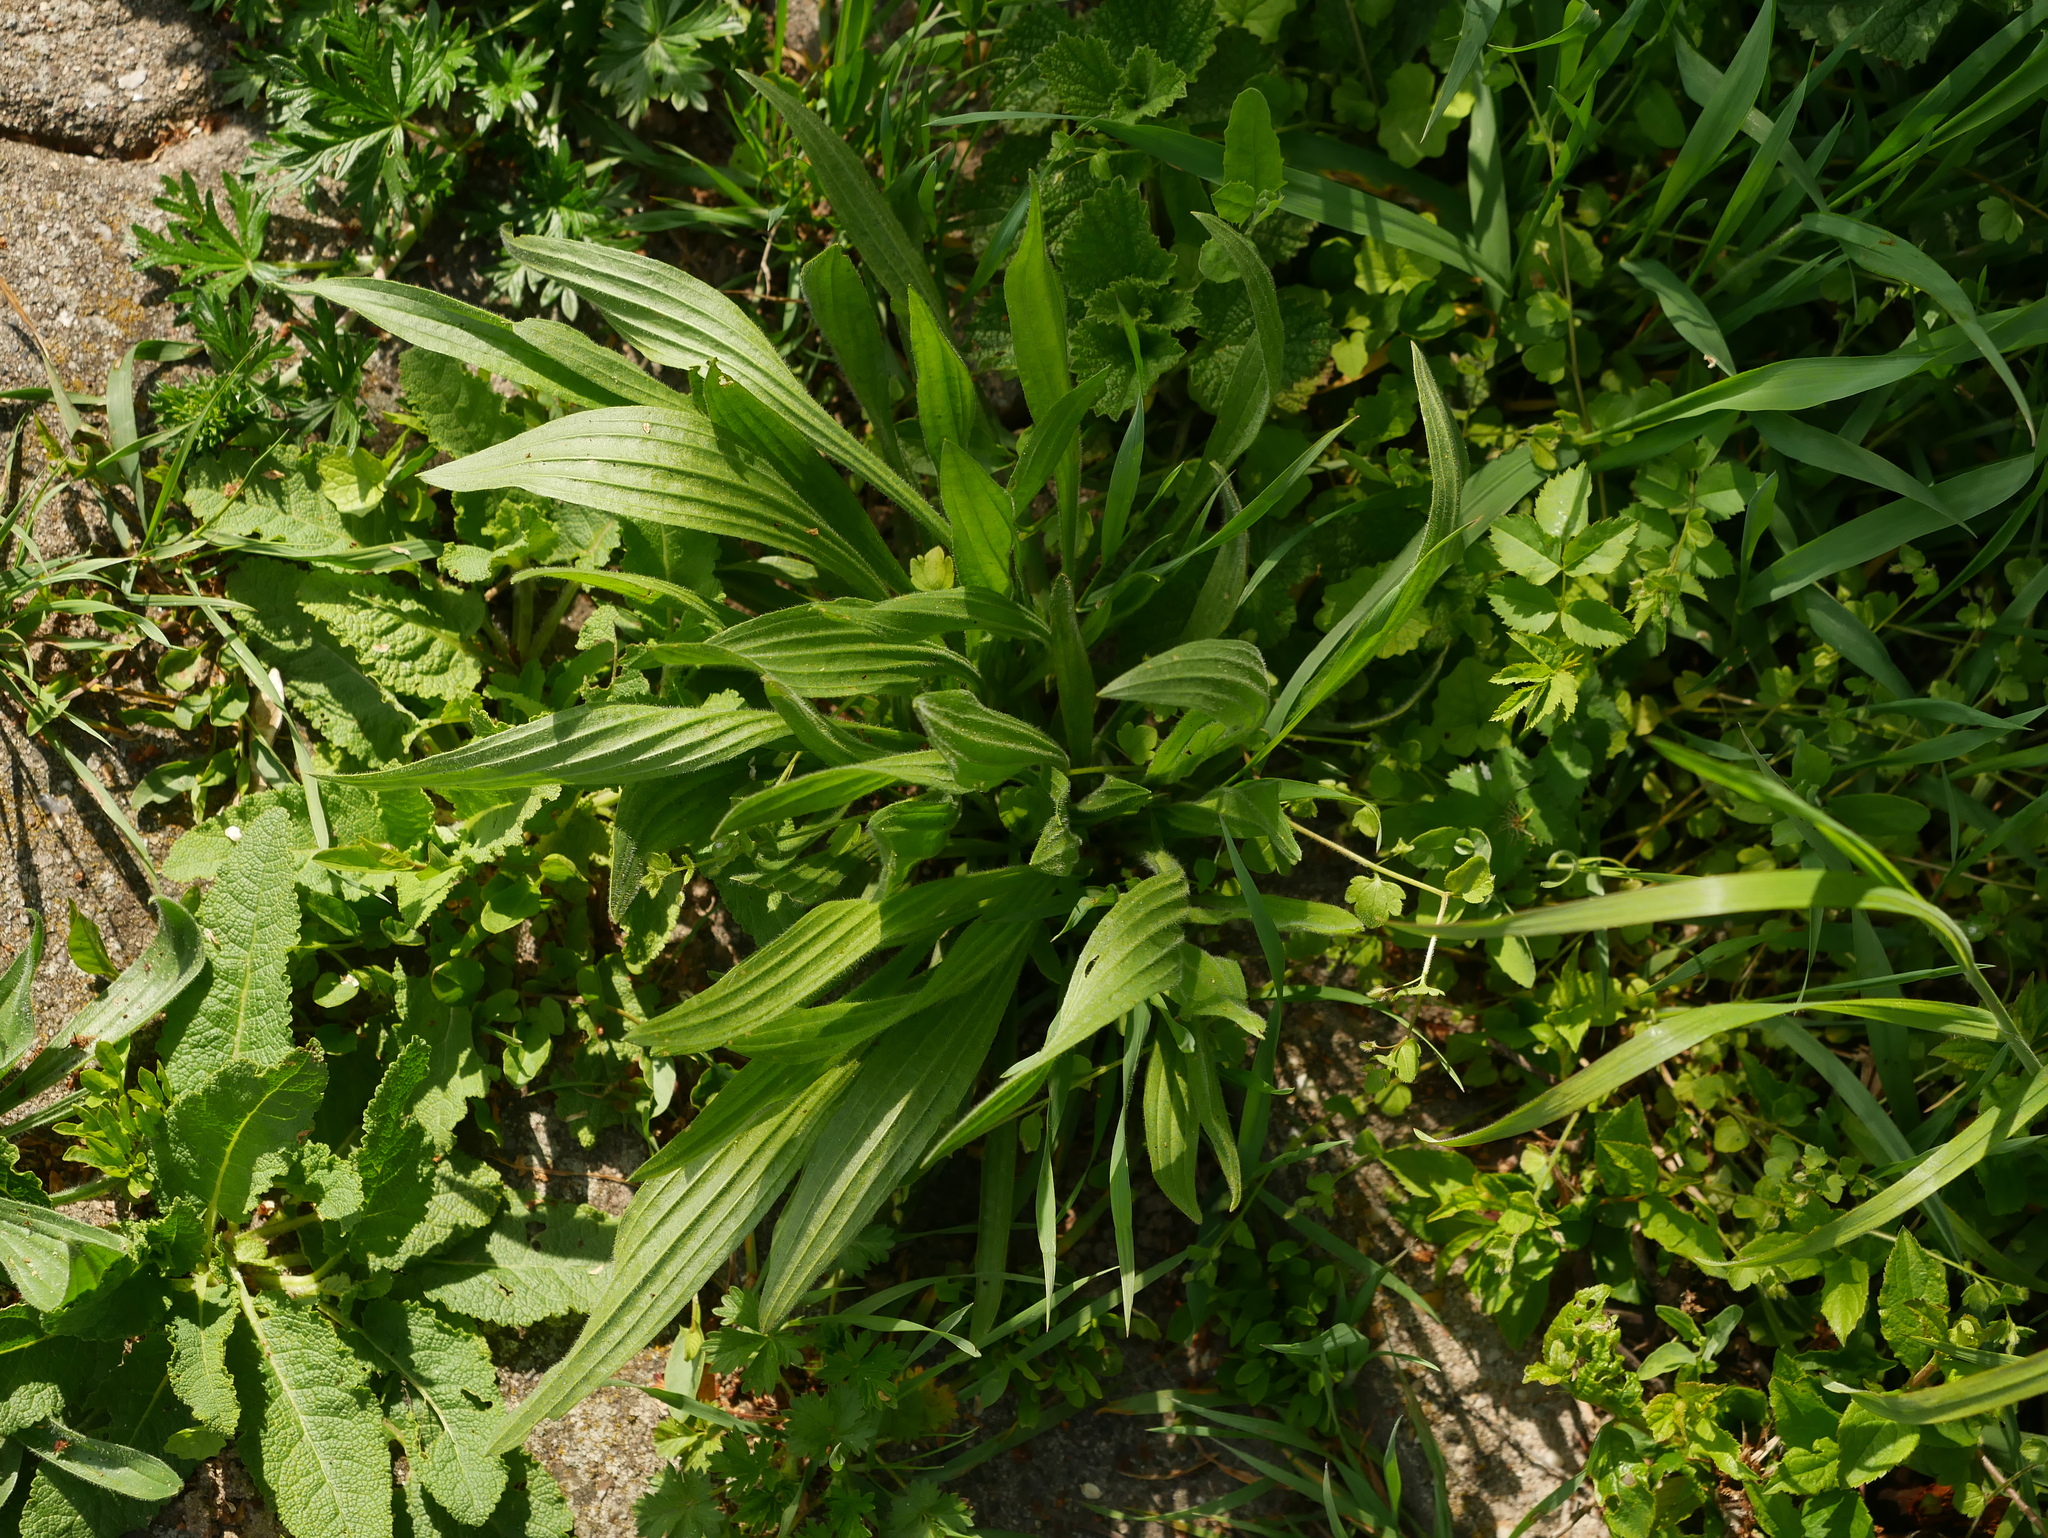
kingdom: Plantae
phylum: Tracheophyta
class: Magnoliopsida
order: Lamiales
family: Plantaginaceae
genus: Plantago
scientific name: Plantago lanceolata
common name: Ribwort plantain
